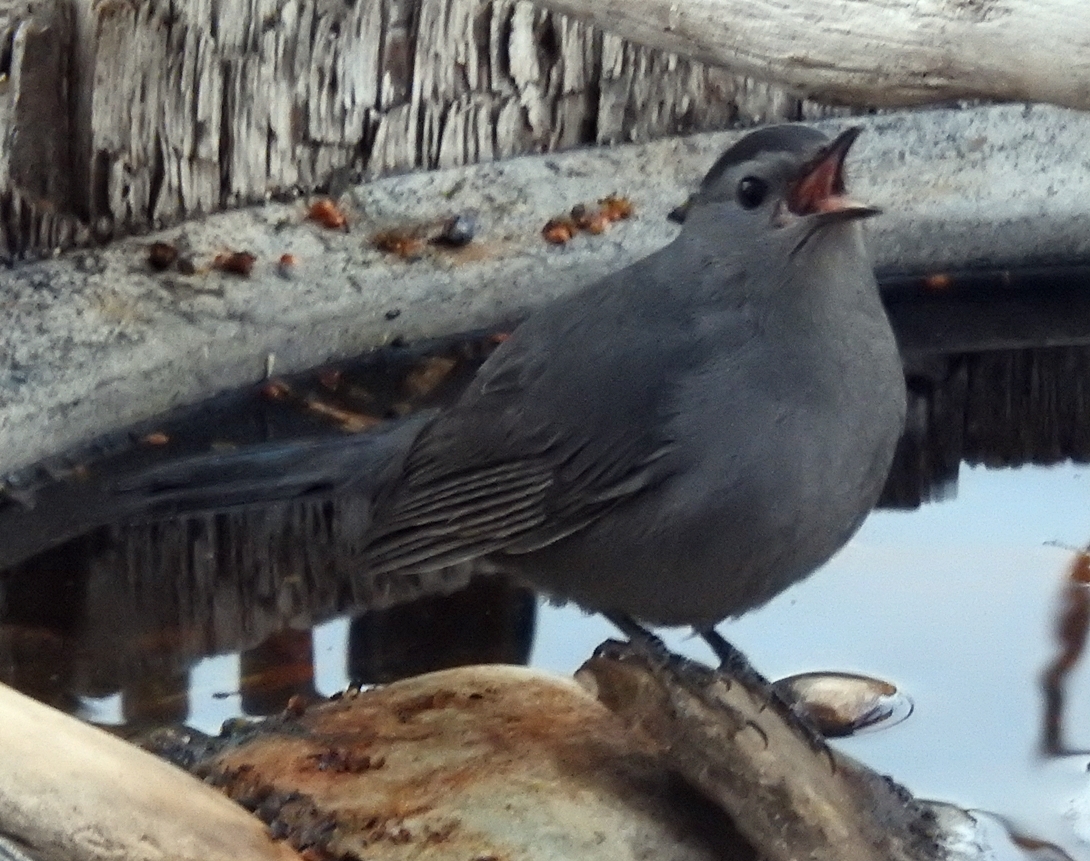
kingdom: Animalia
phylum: Chordata
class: Aves
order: Passeriformes
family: Mimidae
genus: Dumetella
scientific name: Dumetella carolinensis
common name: Gray catbird
